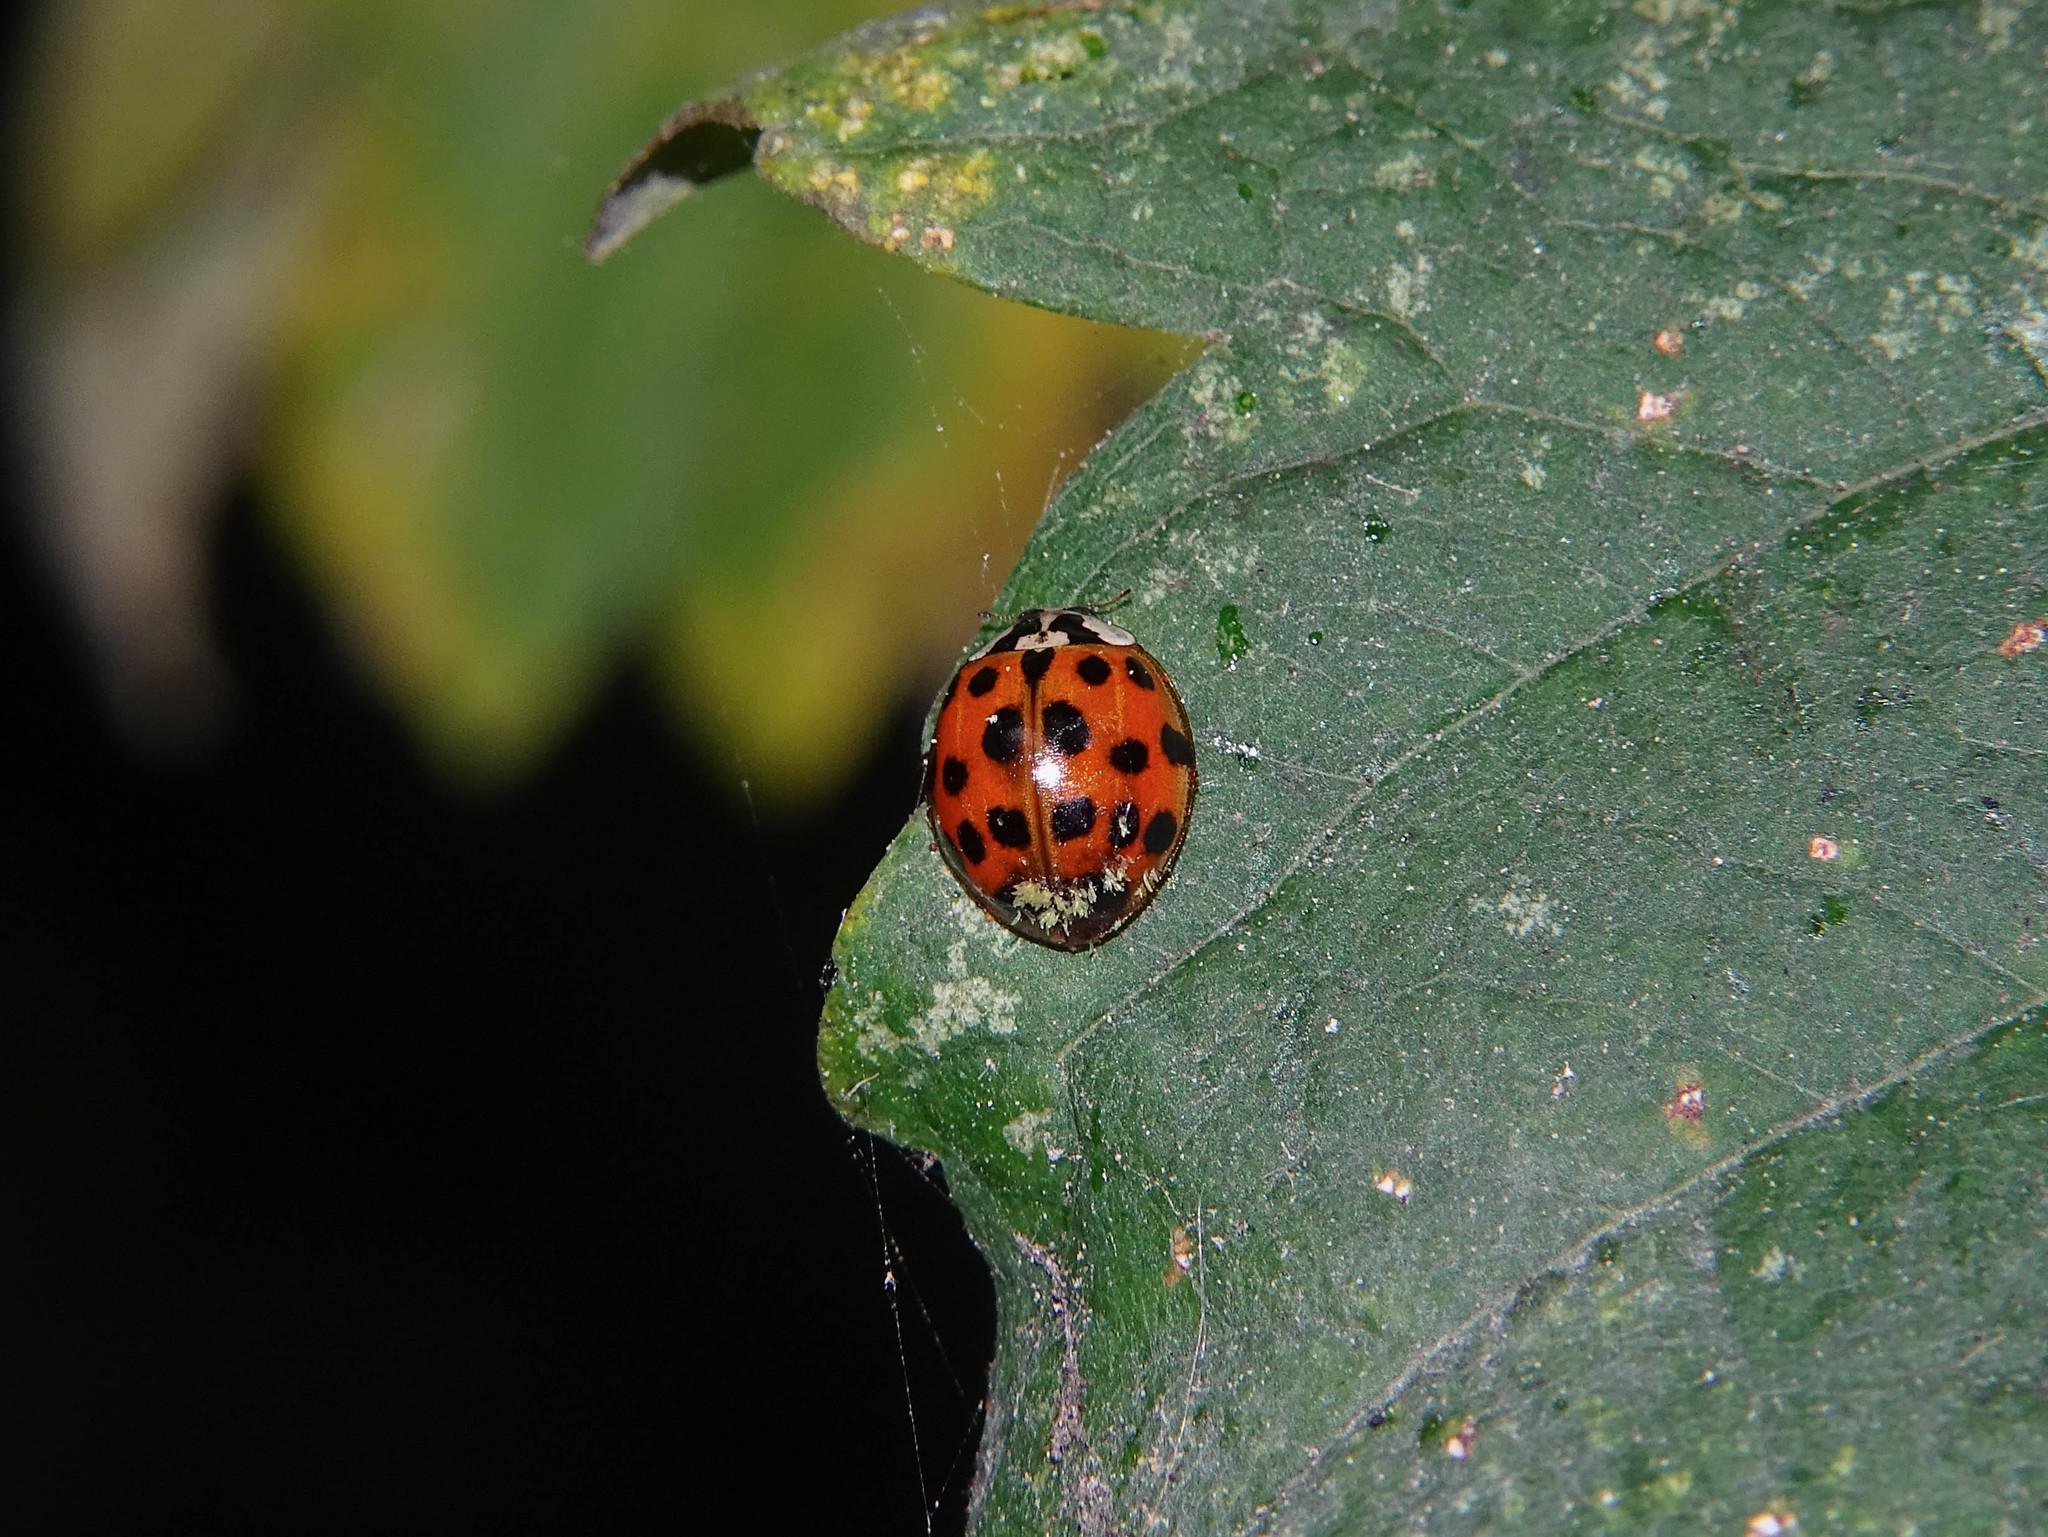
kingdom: Animalia
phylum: Arthropoda
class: Insecta
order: Coleoptera
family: Coccinellidae
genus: Harmonia
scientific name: Harmonia axyridis
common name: Harlequin ladybird
